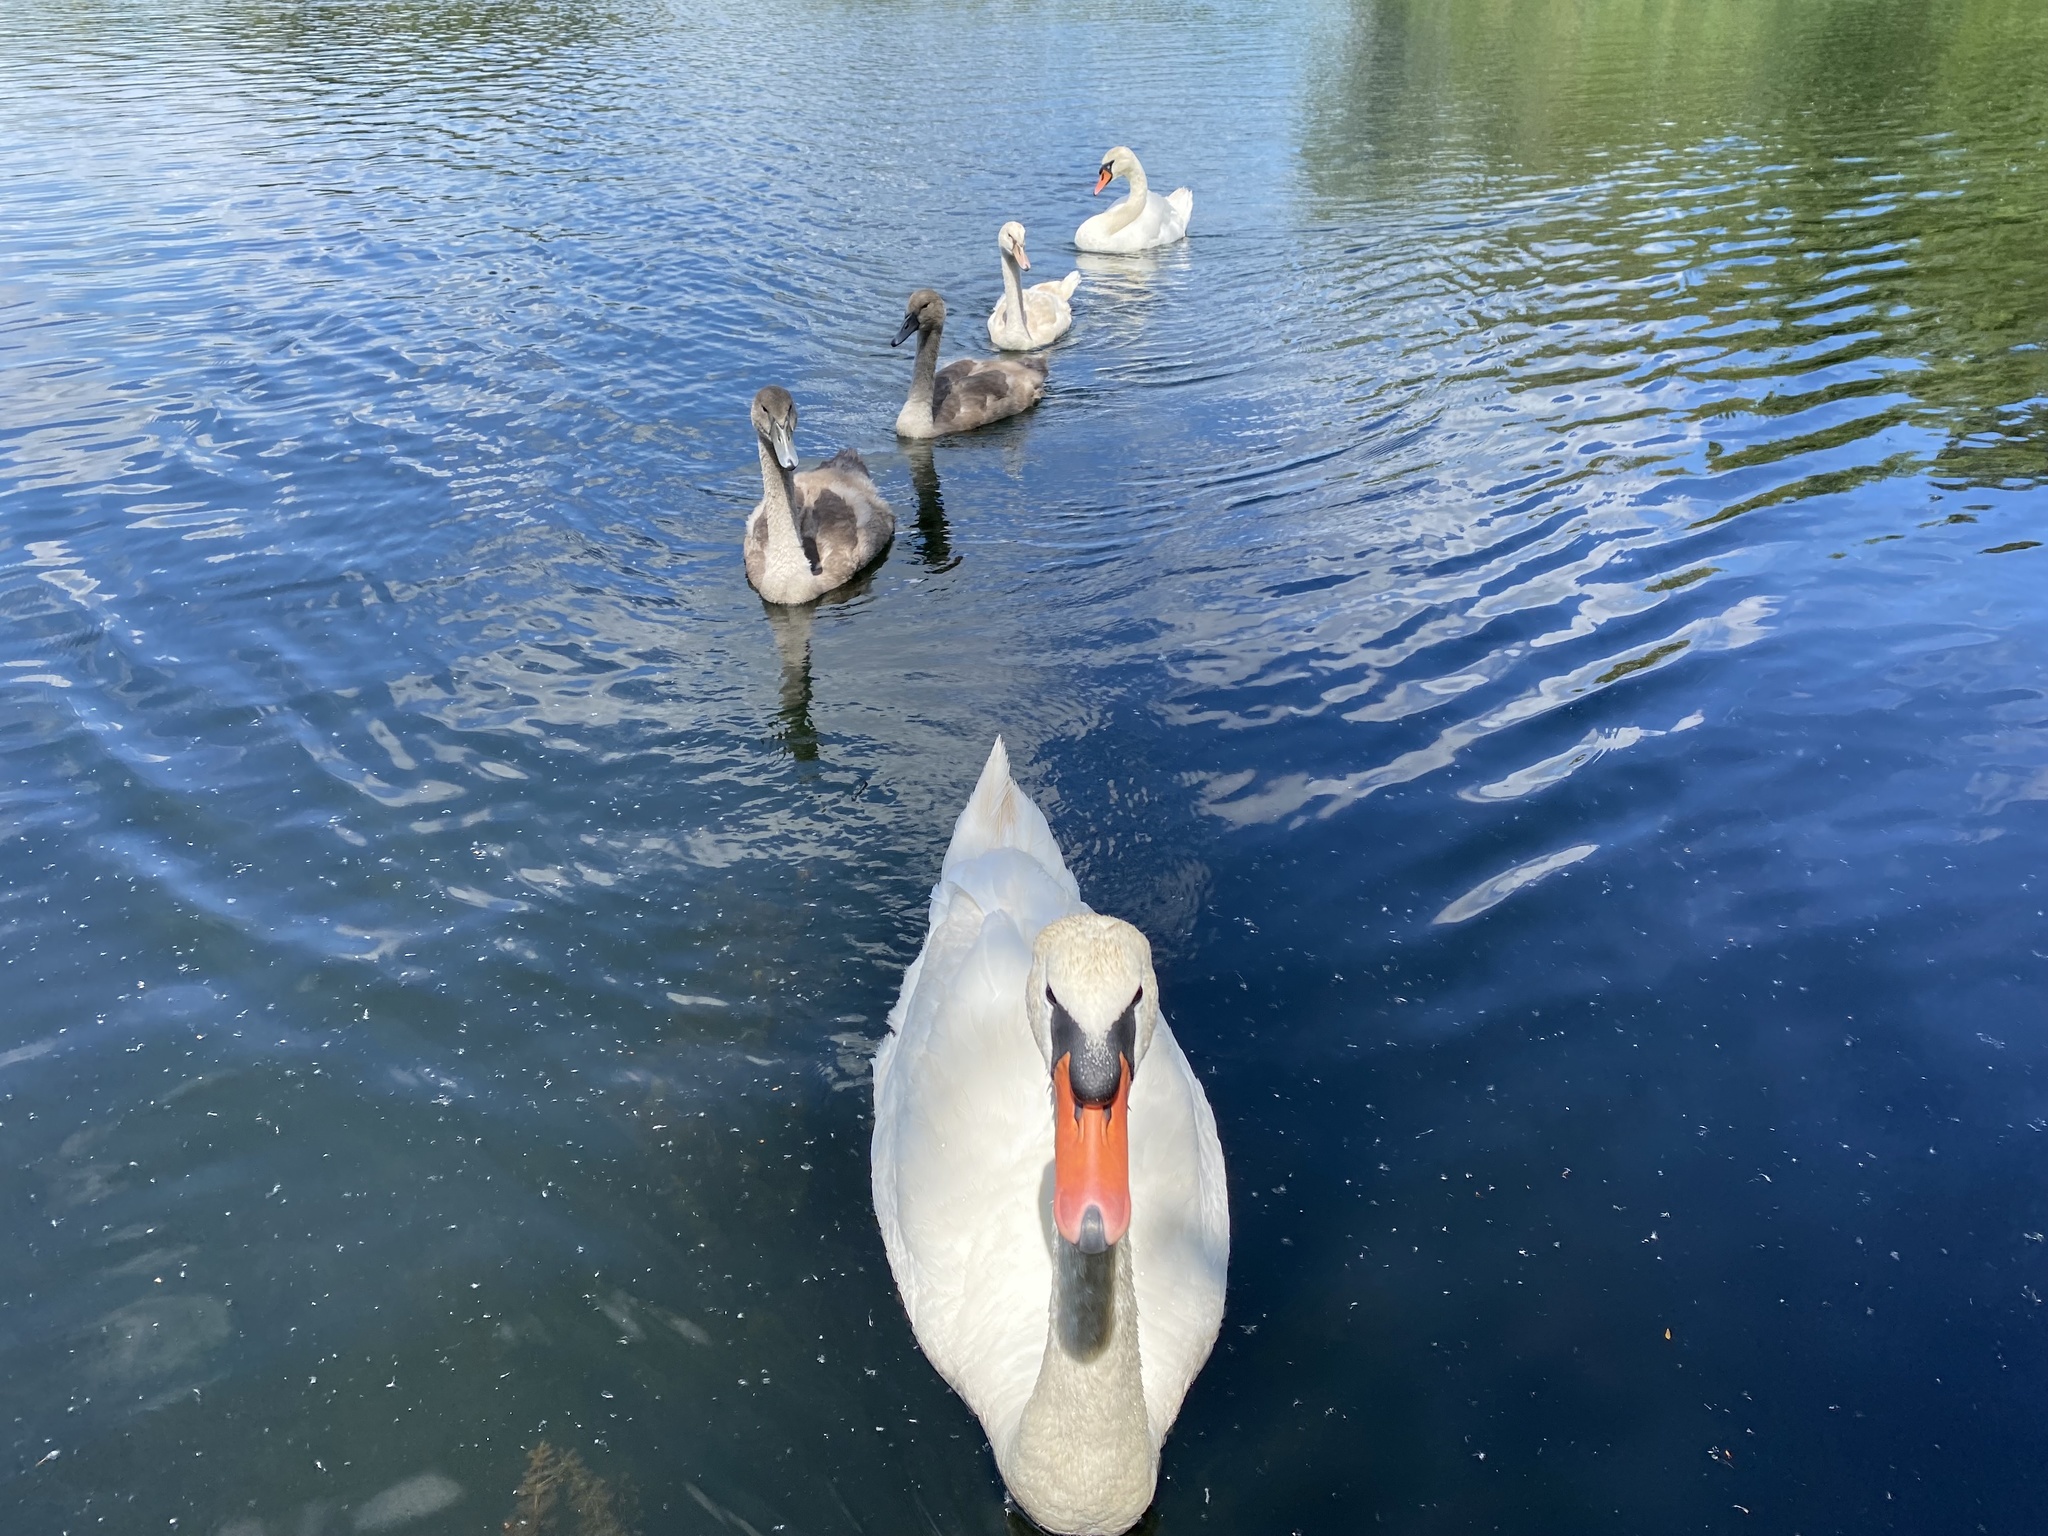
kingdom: Animalia
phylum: Chordata
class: Aves
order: Anseriformes
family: Anatidae
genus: Cygnus
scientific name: Cygnus olor
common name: Mute swan
